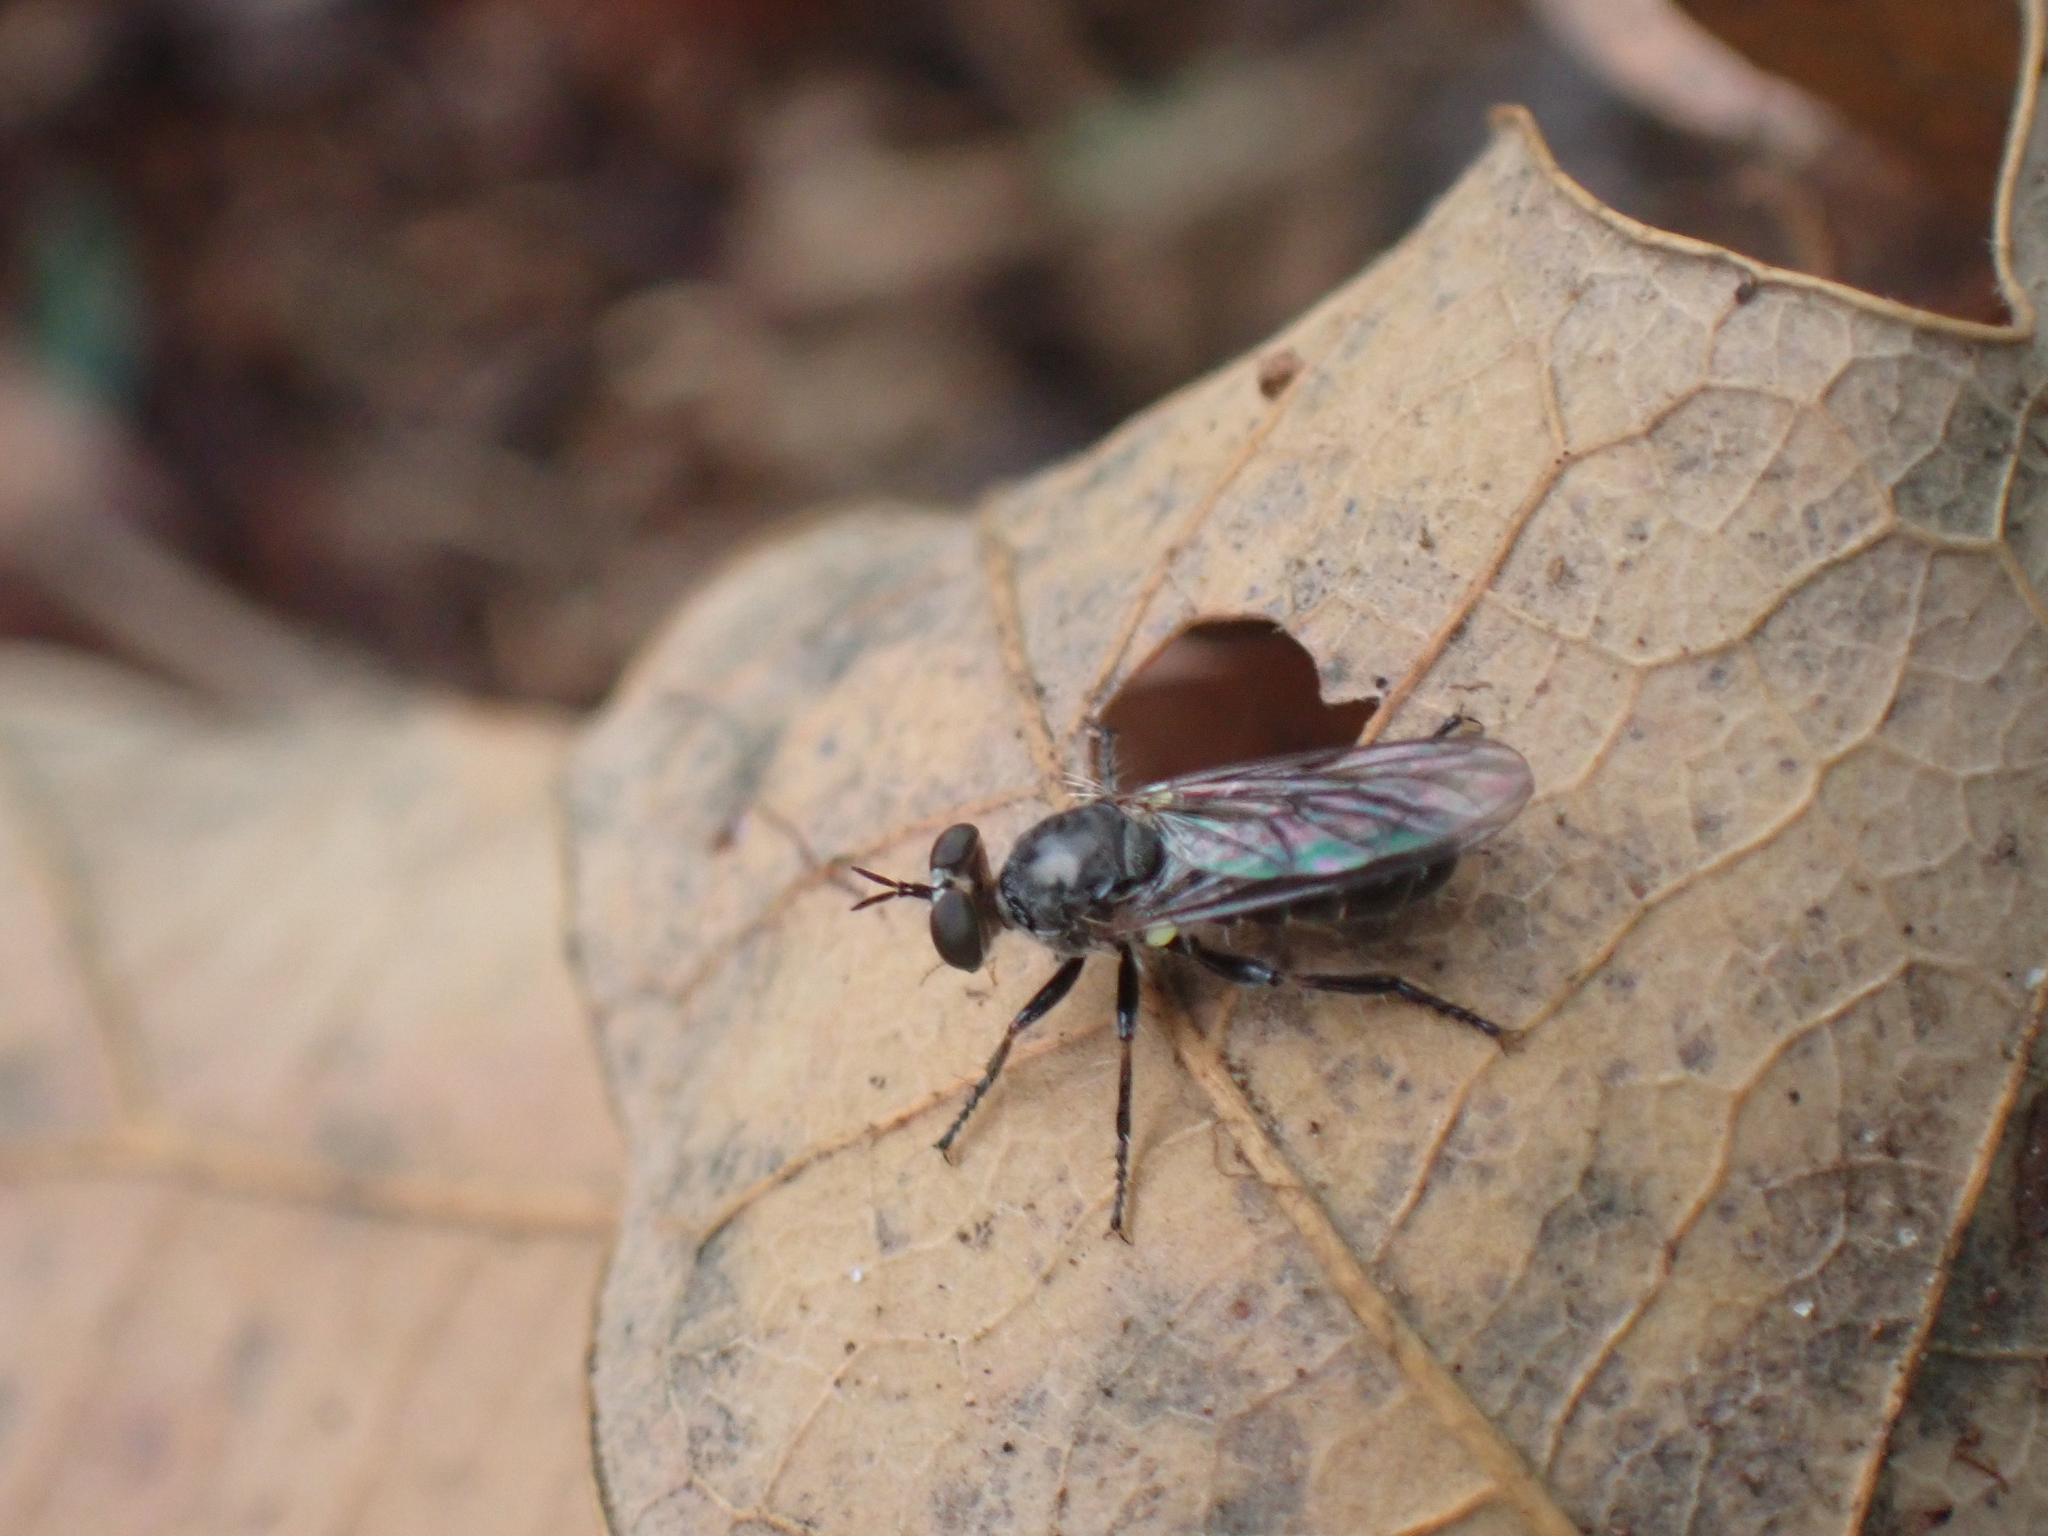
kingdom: Animalia
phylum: Arthropoda
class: Insecta
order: Diptera
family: Asilidae
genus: Atomosia
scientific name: Atomosia puella
